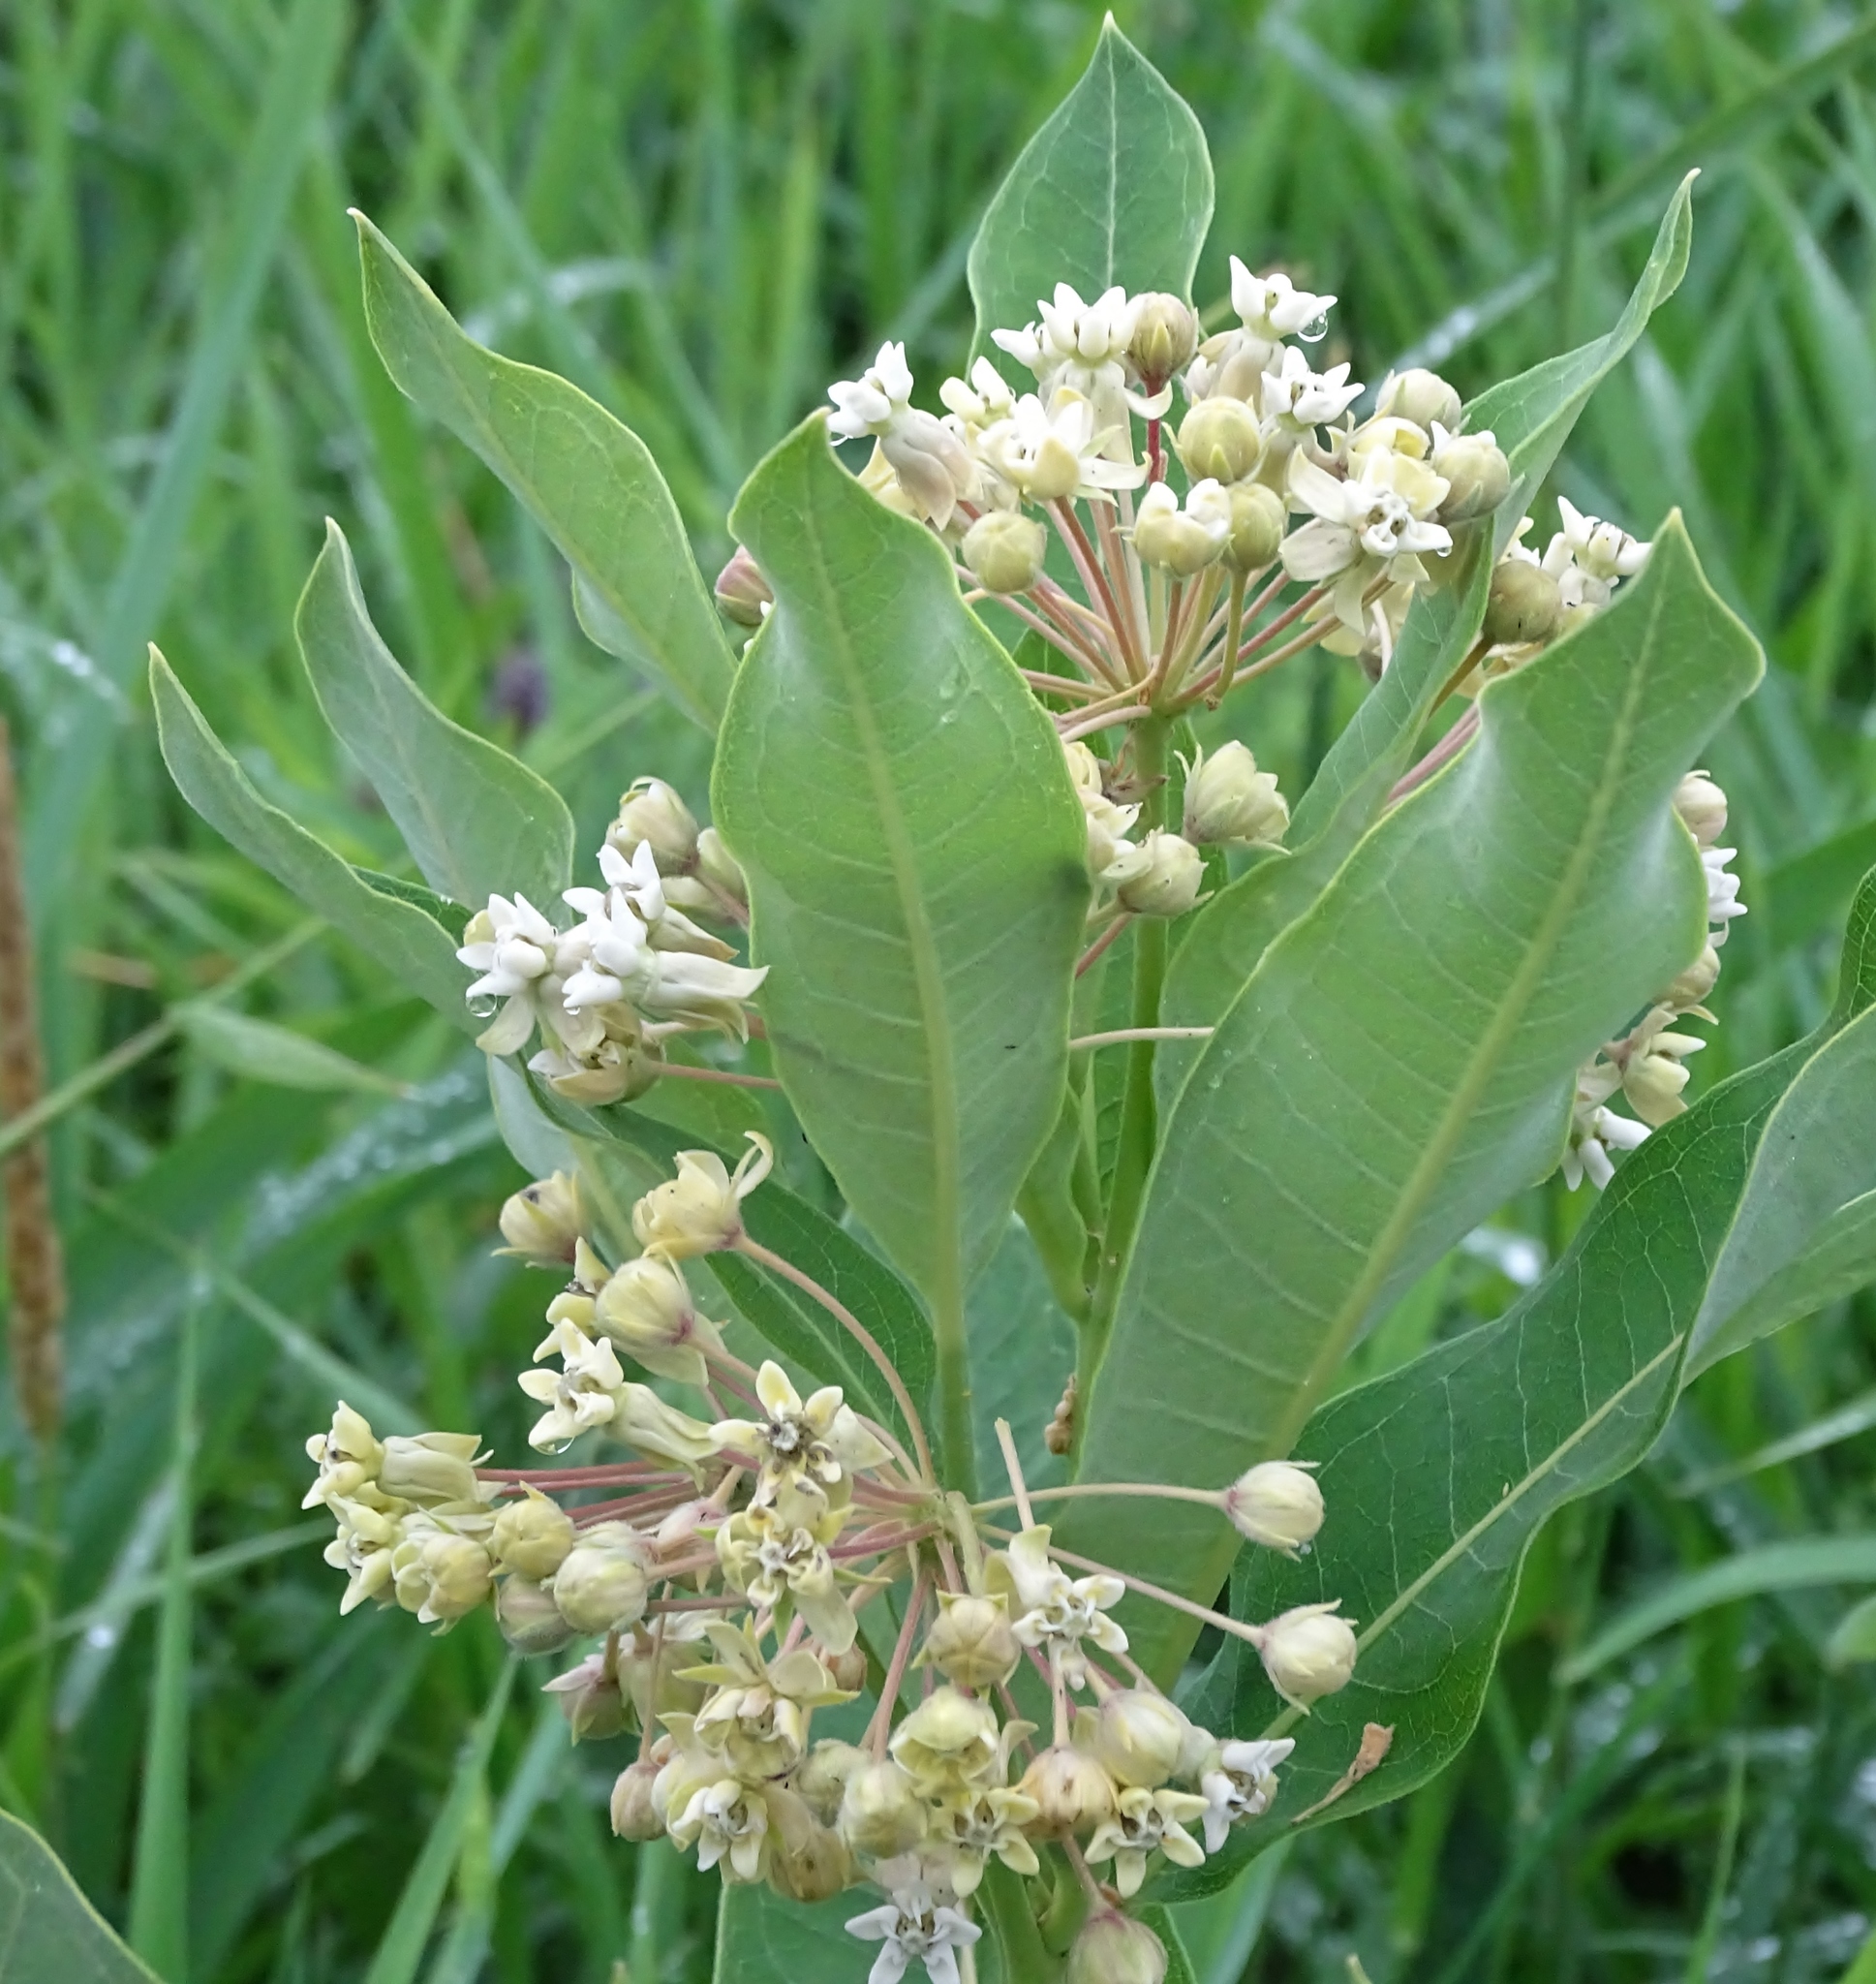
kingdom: Plantae
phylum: Tracheophyta
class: Magnoliopsida
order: Gentianales
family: Apocynaceae
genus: Asclepias
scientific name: Asclepias syriaca
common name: Common milkweed
